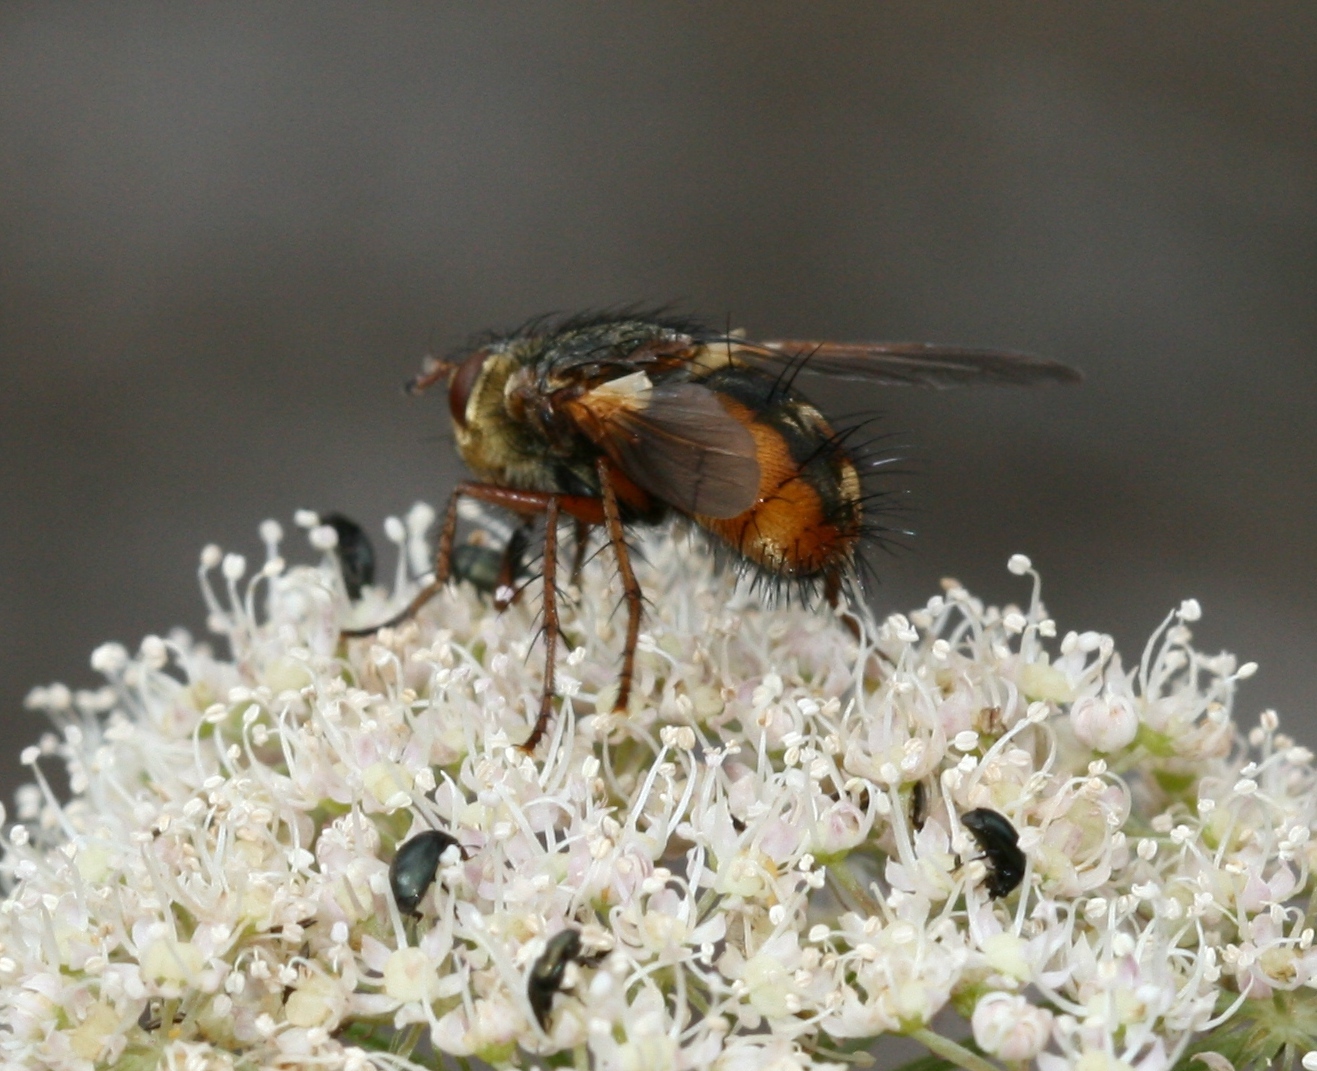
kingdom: Animalia
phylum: Arthropoda
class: Insecta
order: Diptera
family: Tachinidae
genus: Tachina
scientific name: Tachina fera
